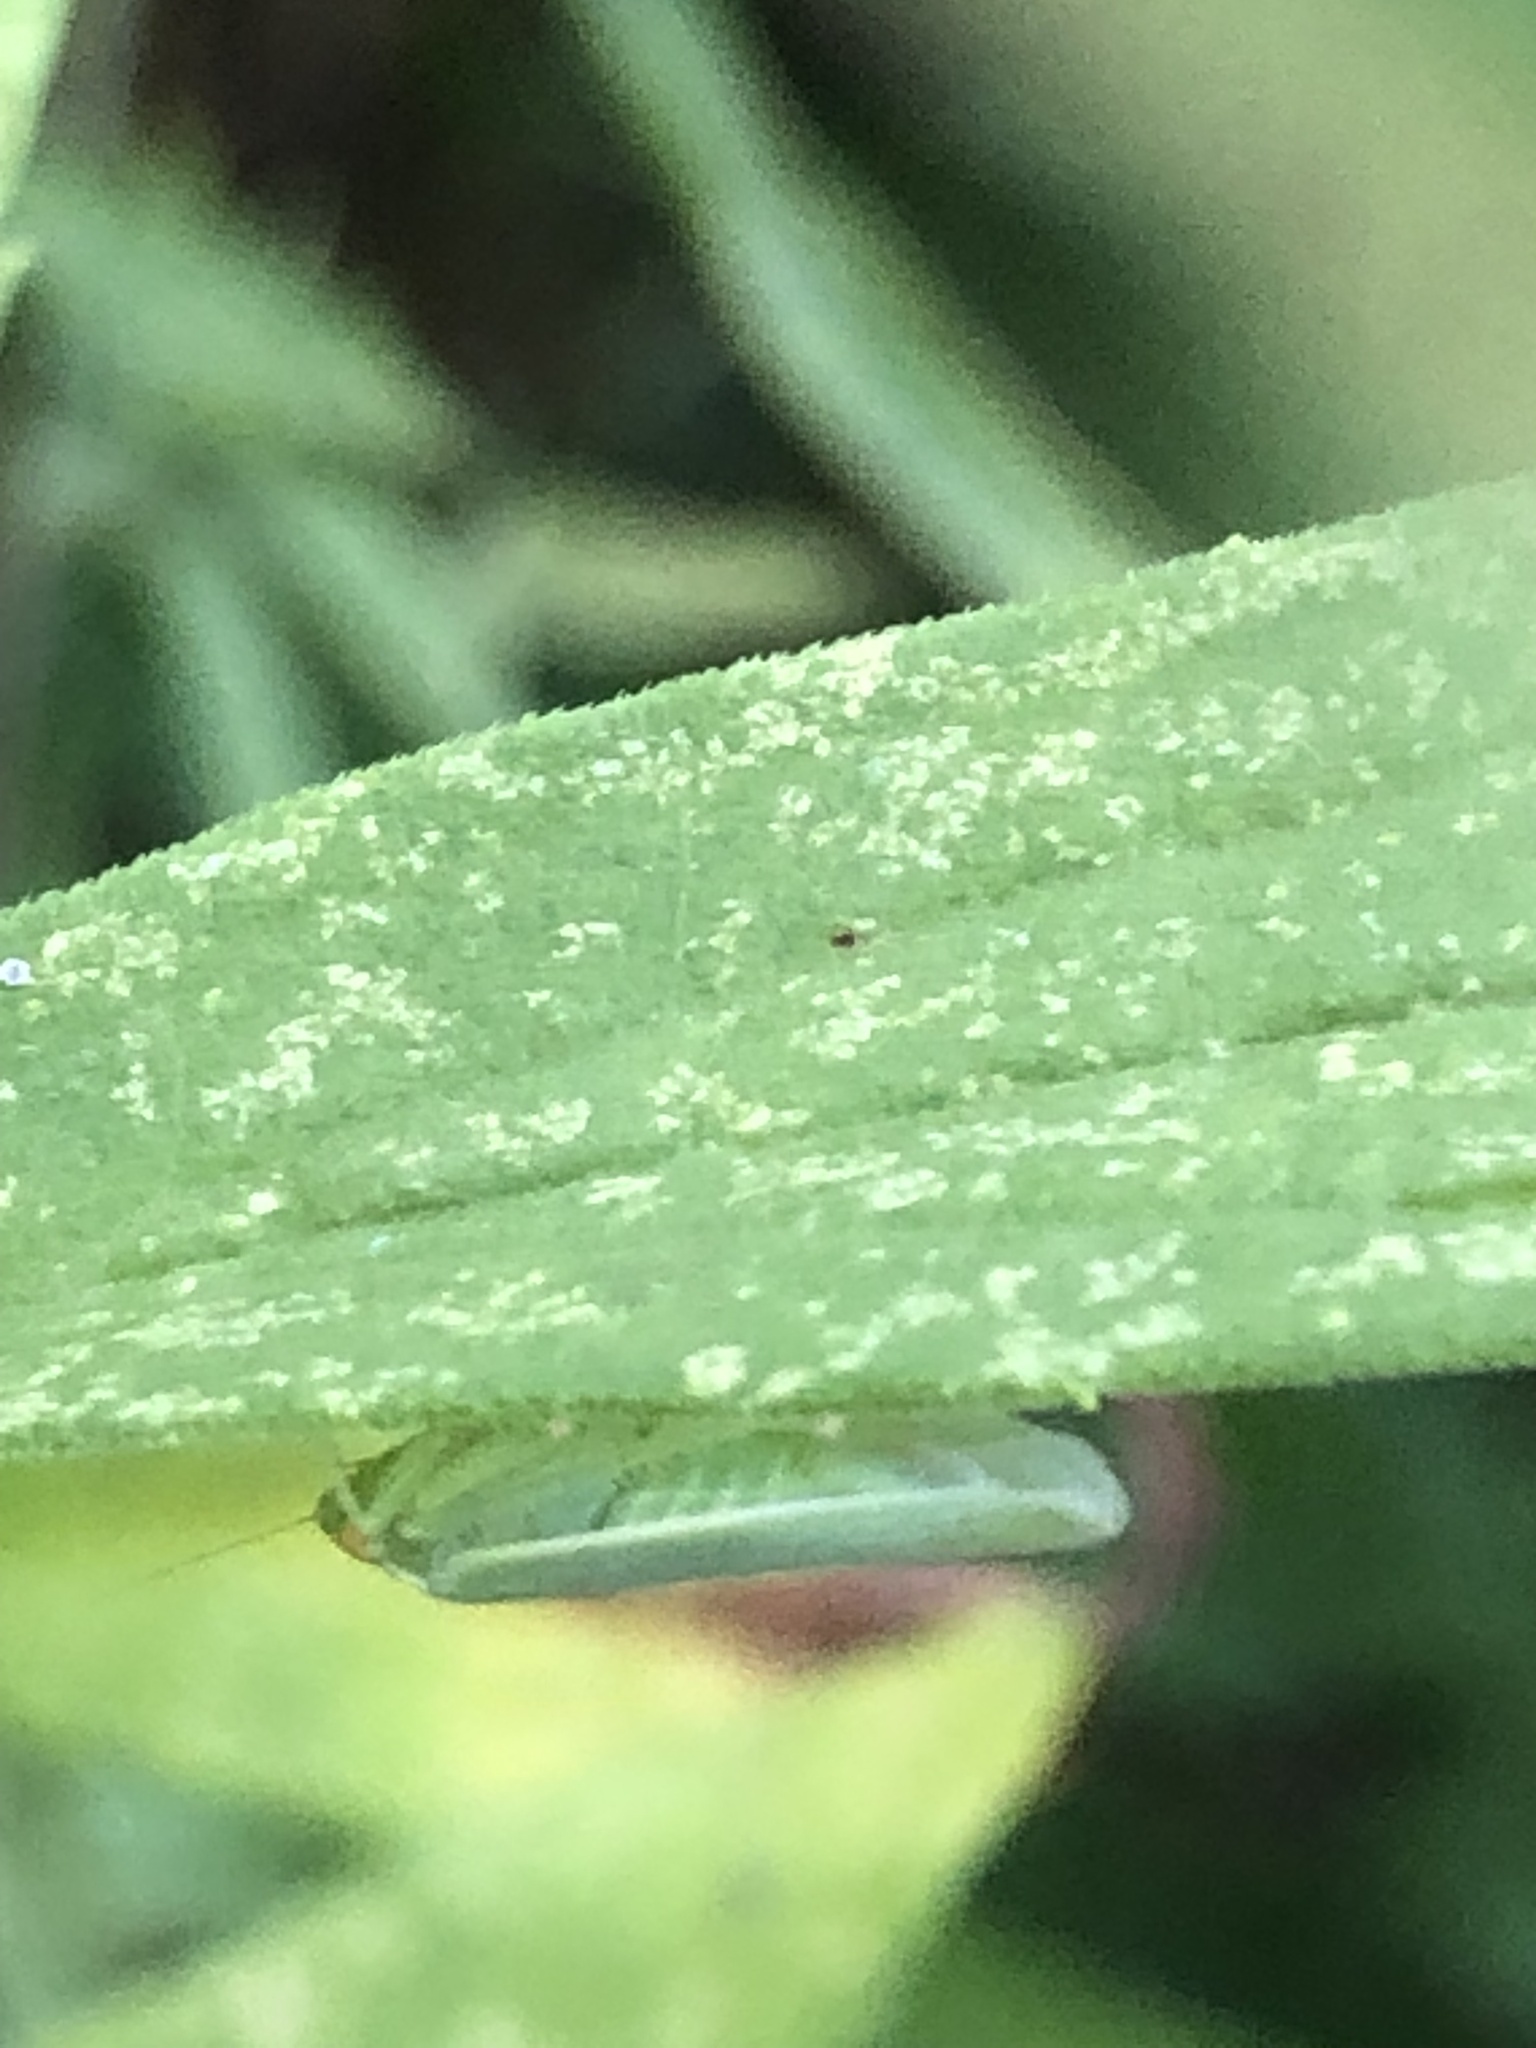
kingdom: Animalia
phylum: Arthropoda
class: Insecta
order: Hemiptera
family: Cicadellidae
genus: Pagaronia
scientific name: Pagaronia minor
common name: Leafhopper
